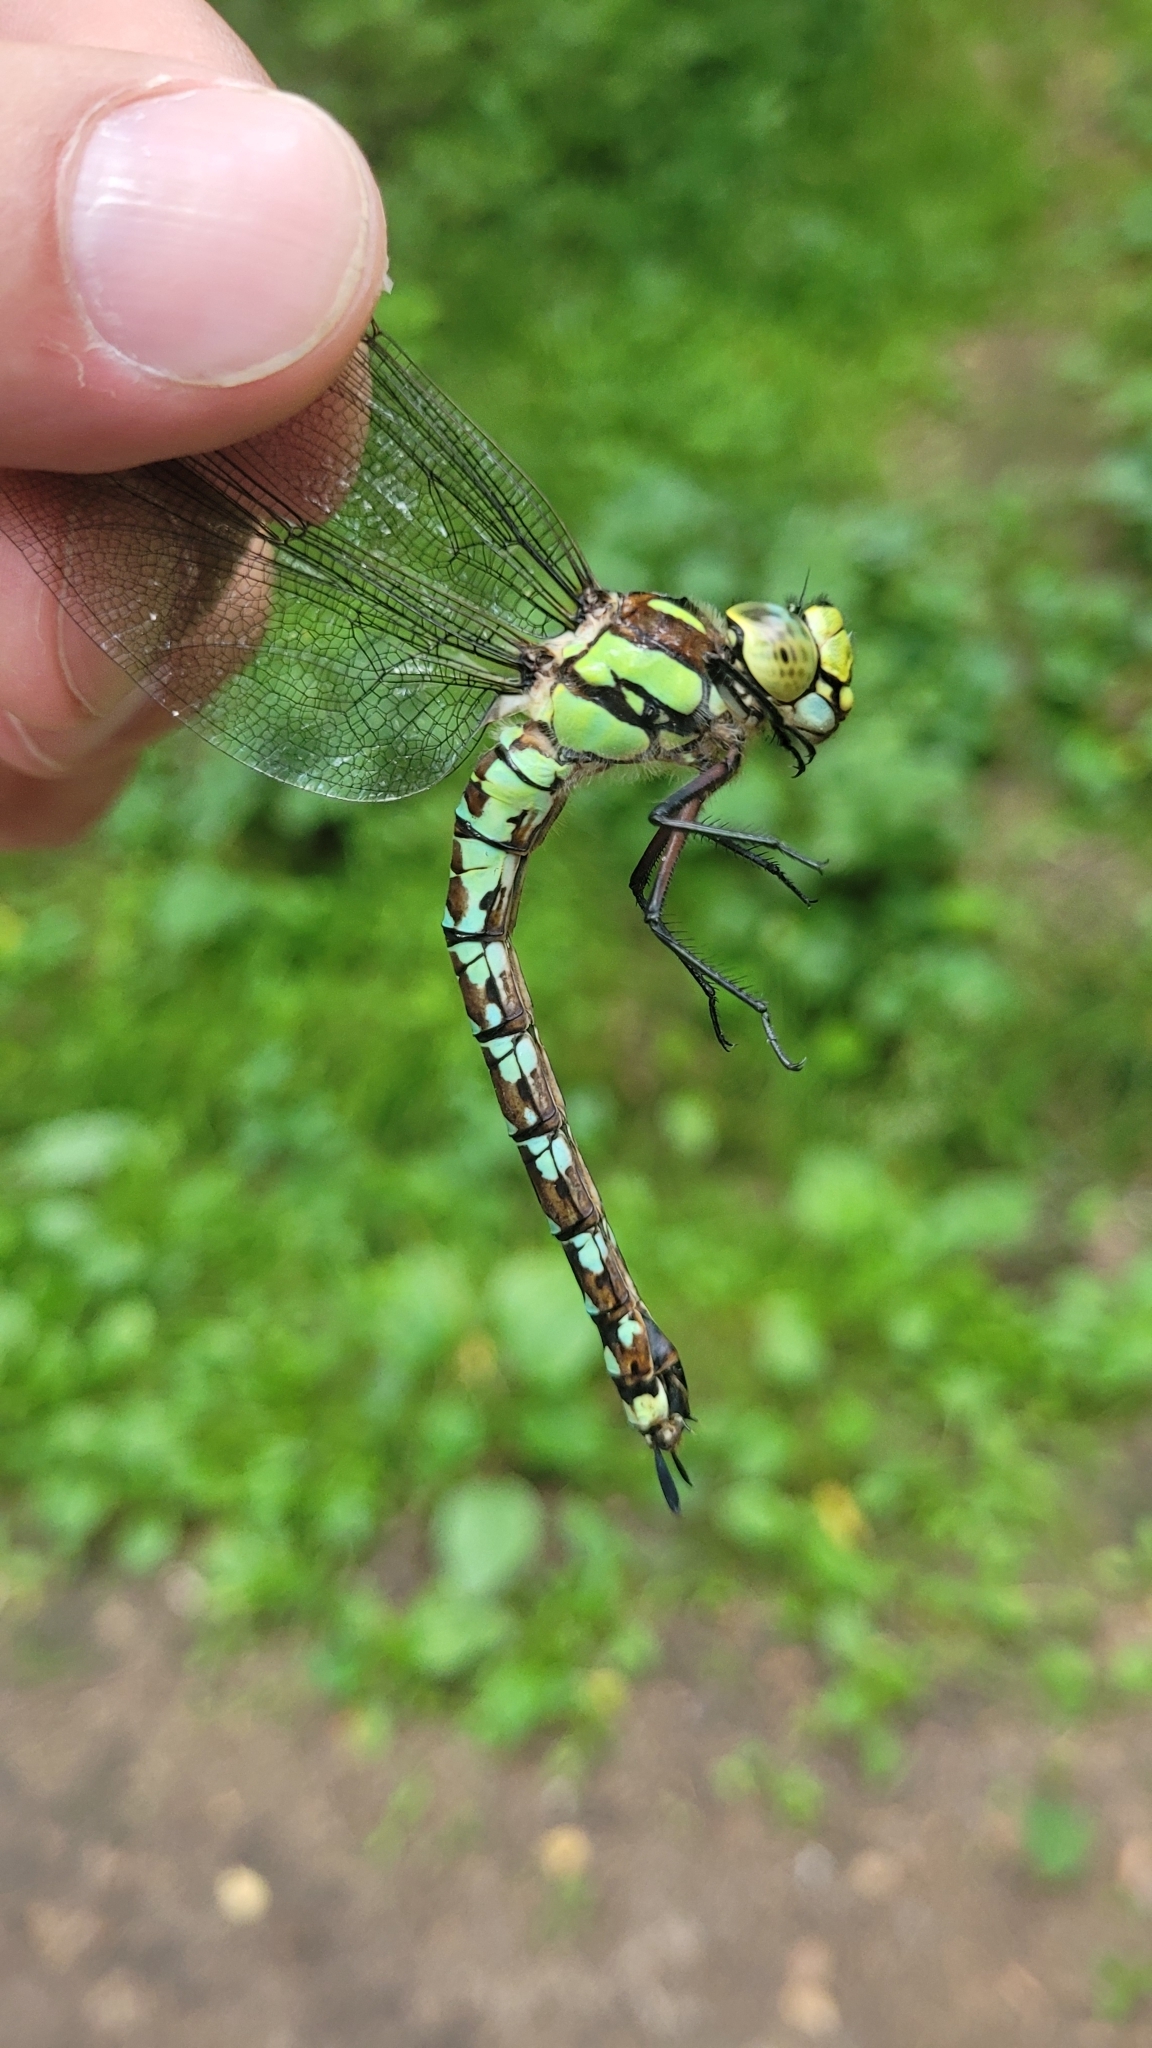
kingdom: Animalia
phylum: Arthropoda
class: Insecta
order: Odonata
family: Aeshnidae
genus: Aeshna
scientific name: Aeshna cyanea
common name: Southern hawker
